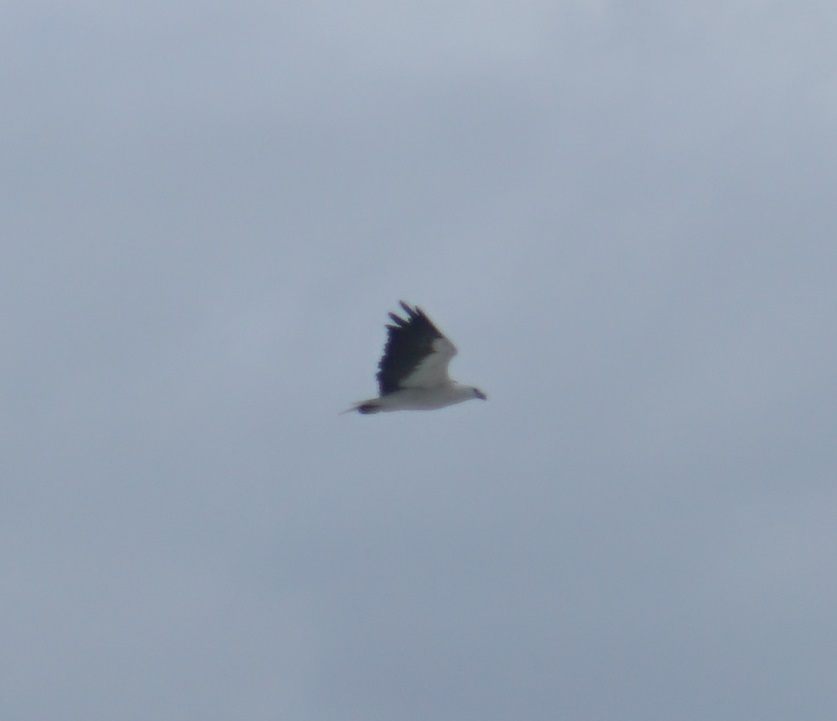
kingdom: Animalia
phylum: Chordata
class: Aves
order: Accipitriformes
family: Accipitridae
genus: Haliaeetus
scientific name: Haliaeetus leucogaster
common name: White-bellied sea eagle
